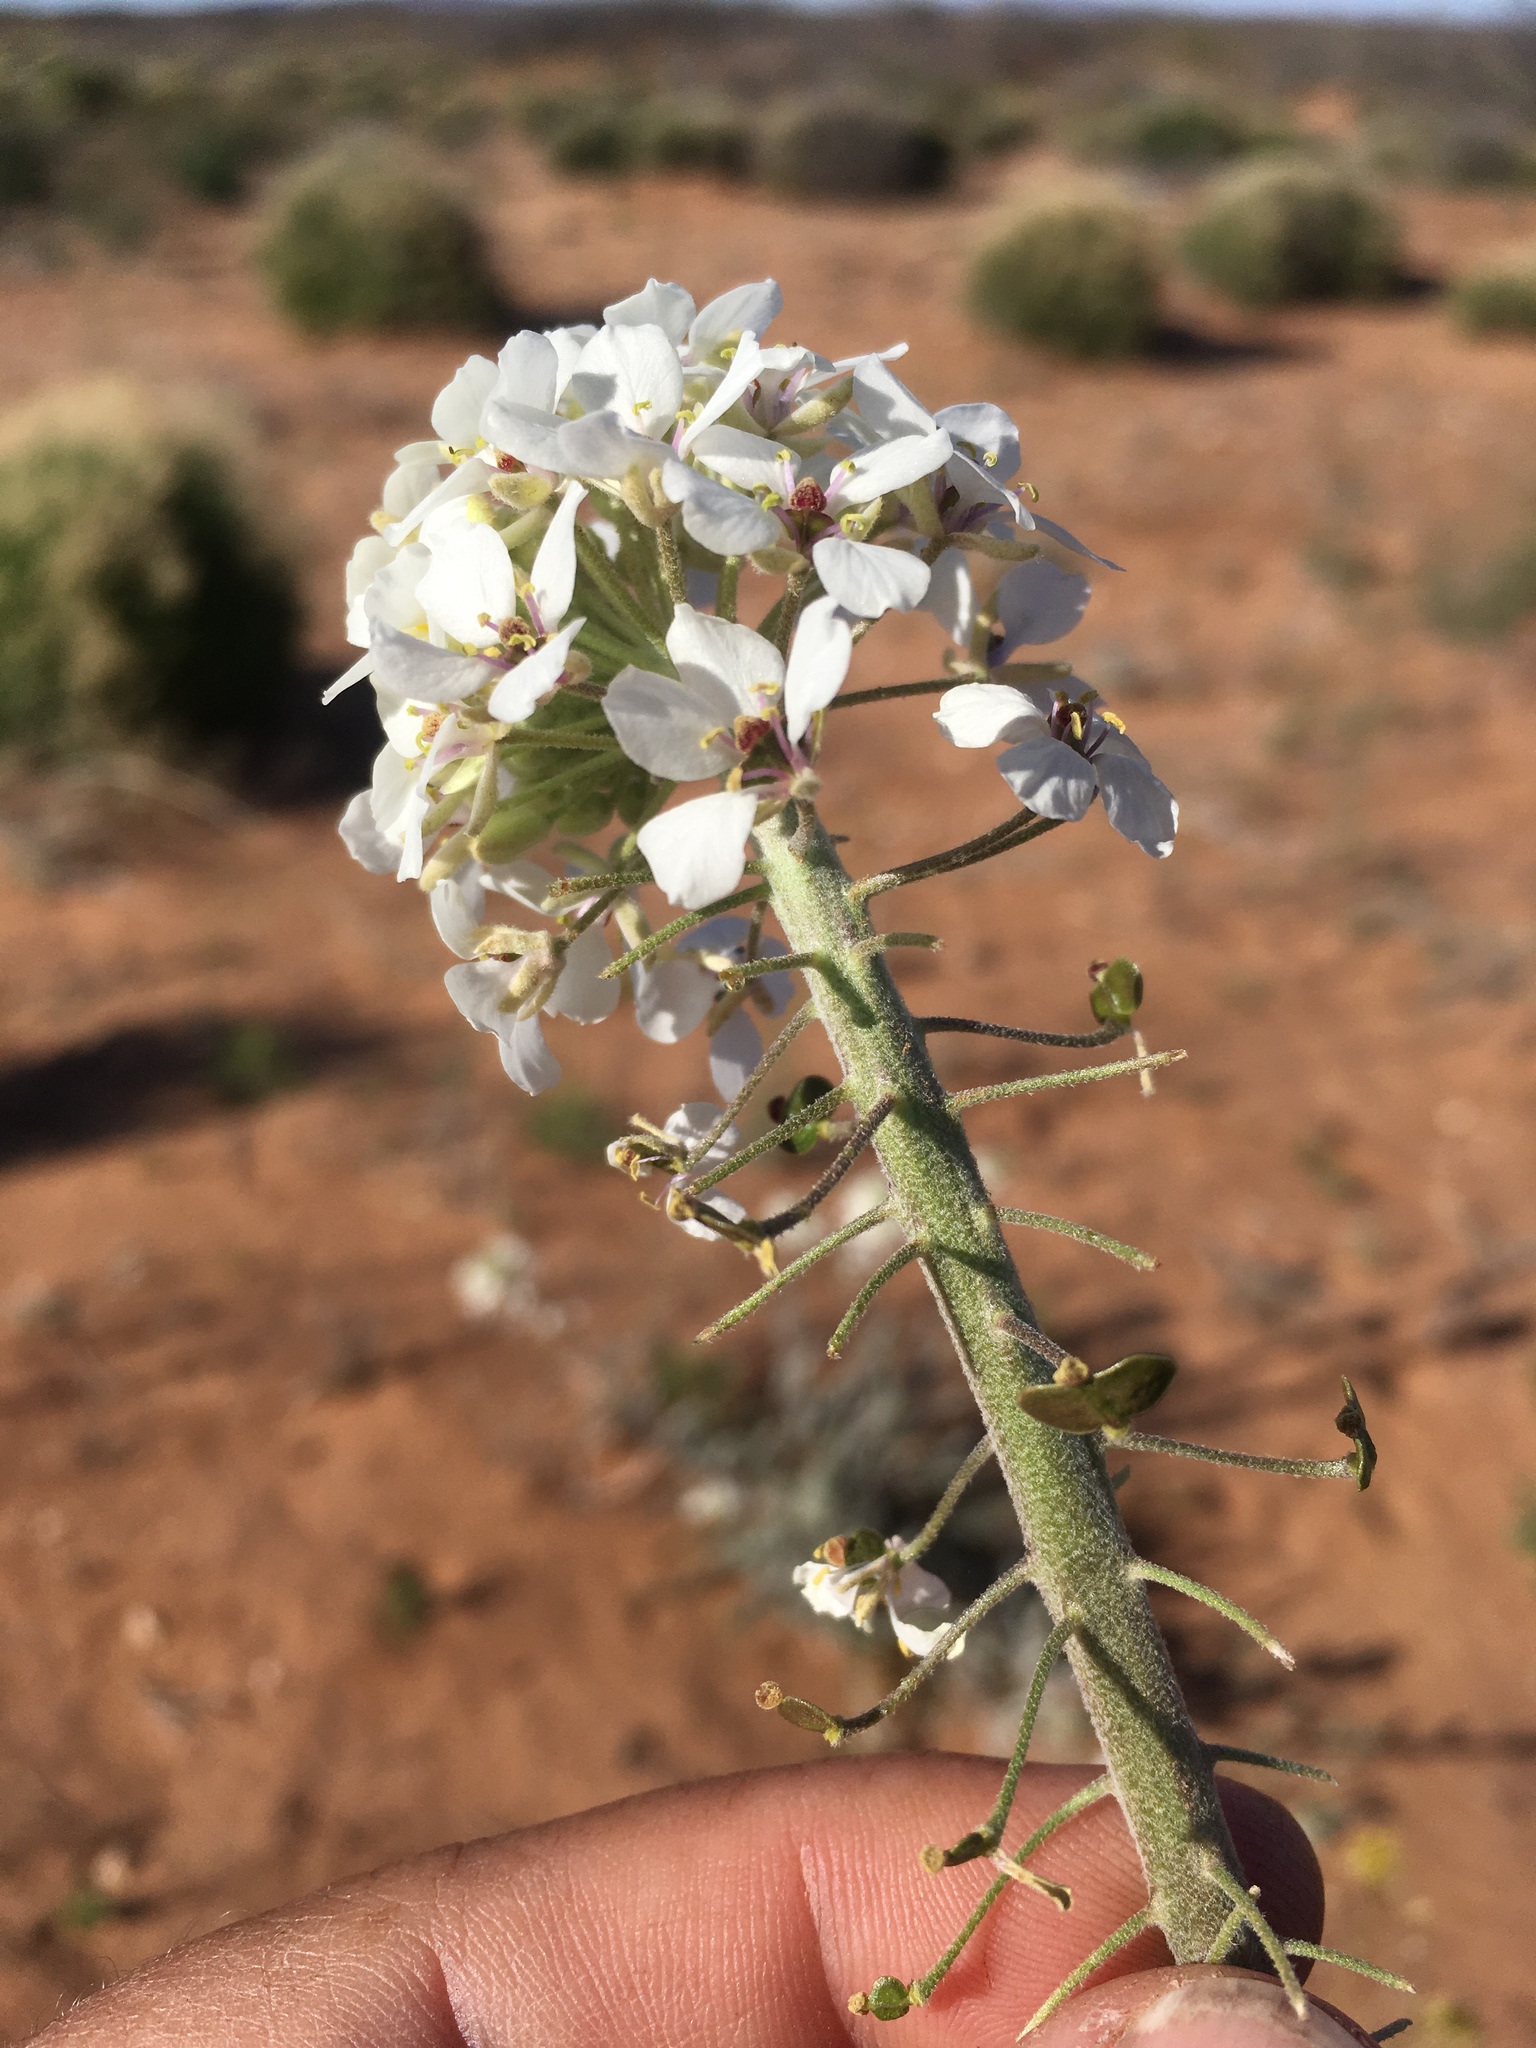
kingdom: Plantae
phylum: Tracheophyta
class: Magnoliopsida
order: Brassicales
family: Brassicaceae
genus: Dimorphocarpa
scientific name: Dimorphocarpa wislizenii
